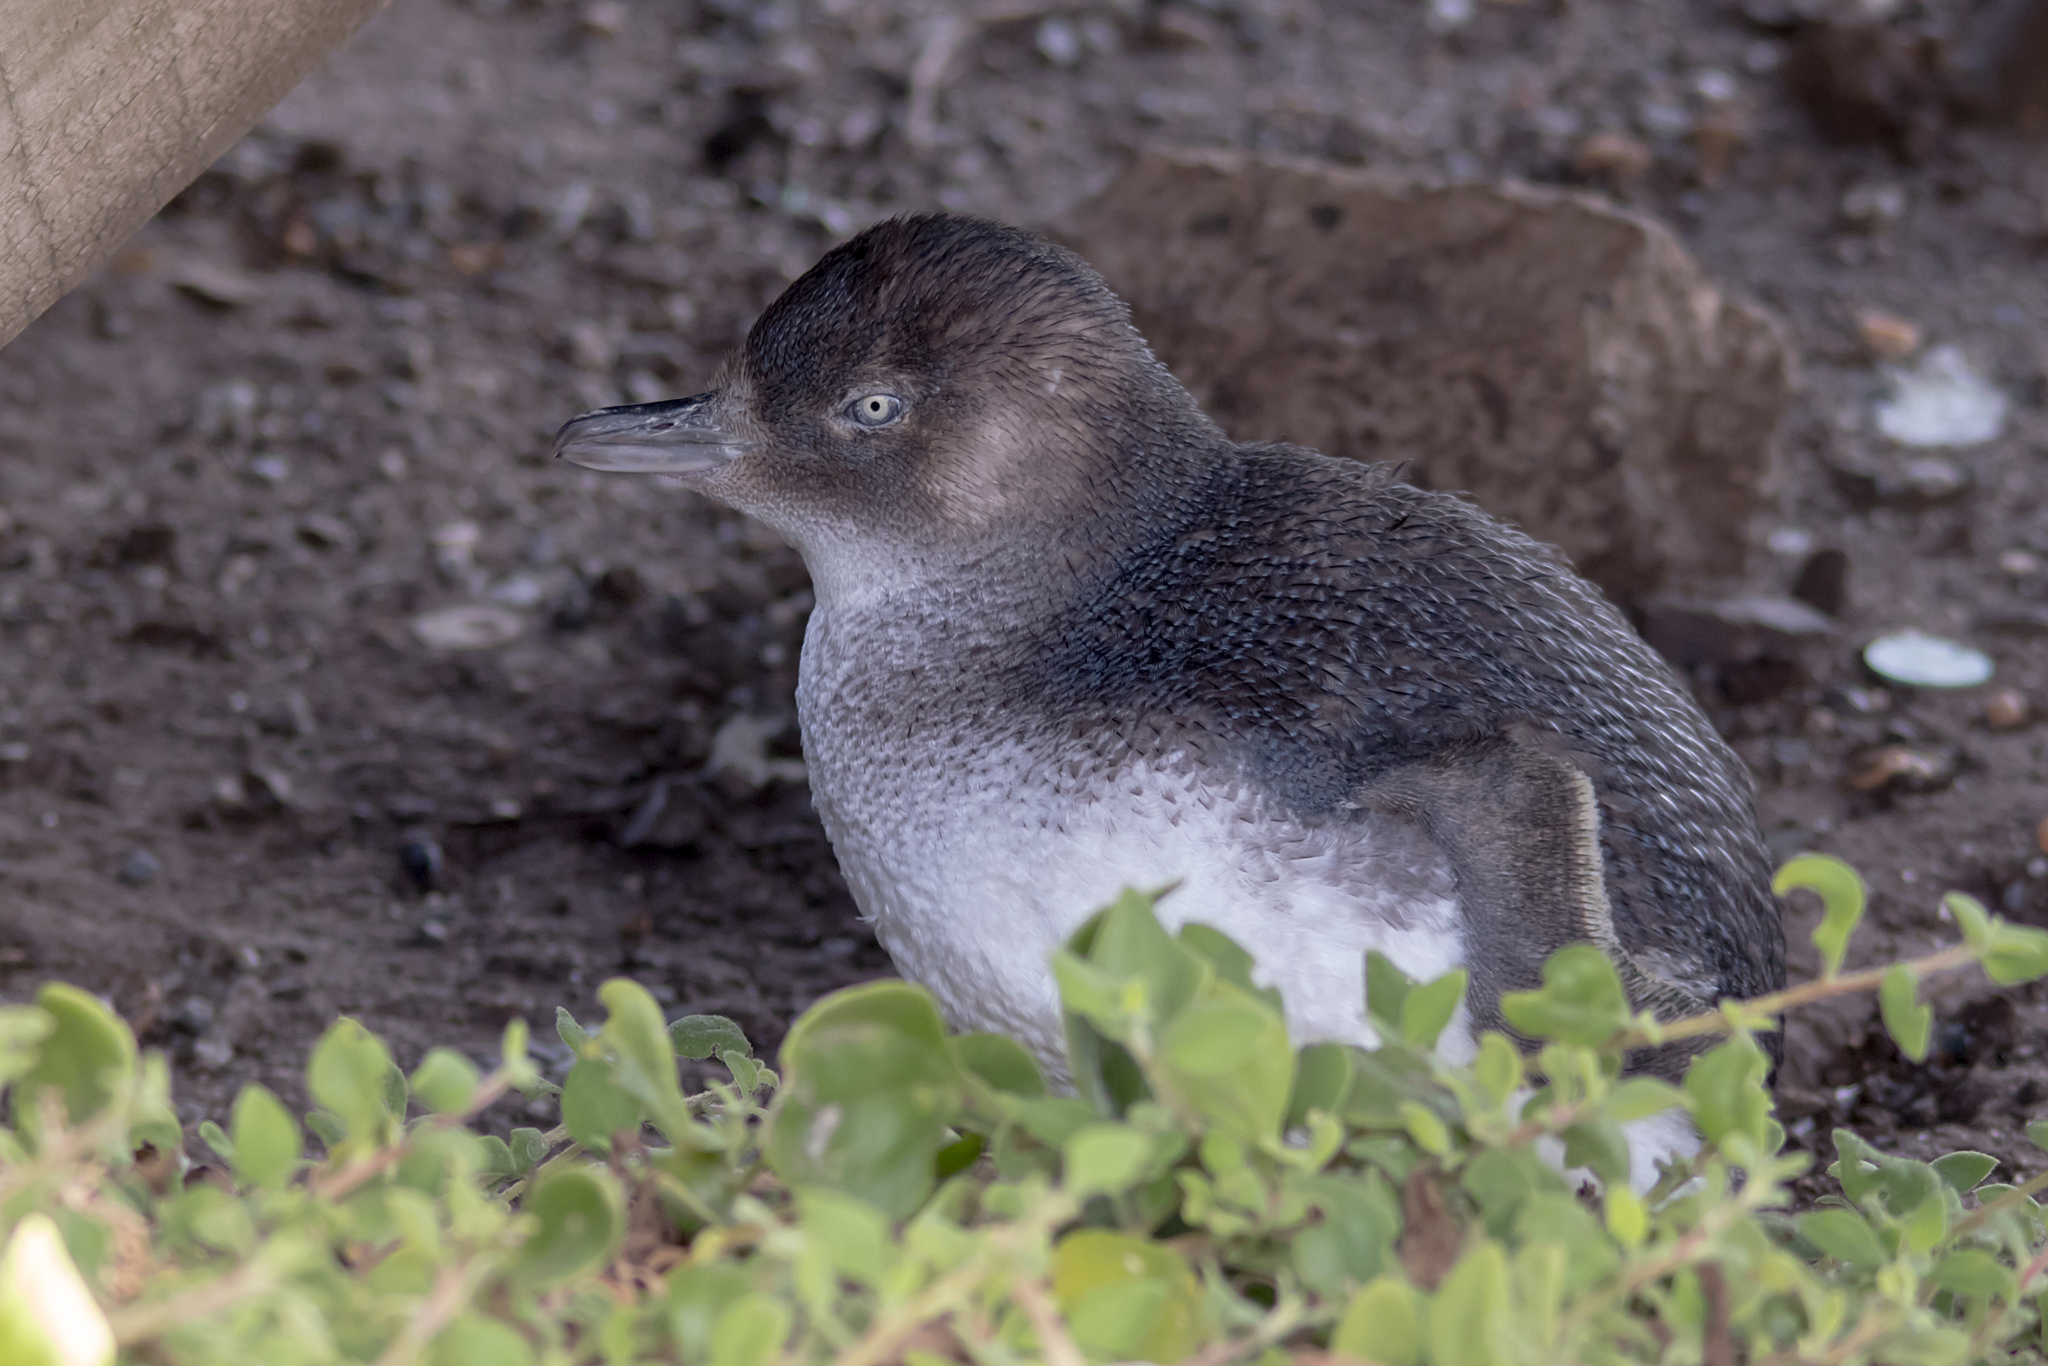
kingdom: Animalia
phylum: Chordata
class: Aves
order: Sphenisciformes
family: Spheniscidae
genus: Eudyptula
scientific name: Eudyptula minor
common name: Little penguin
